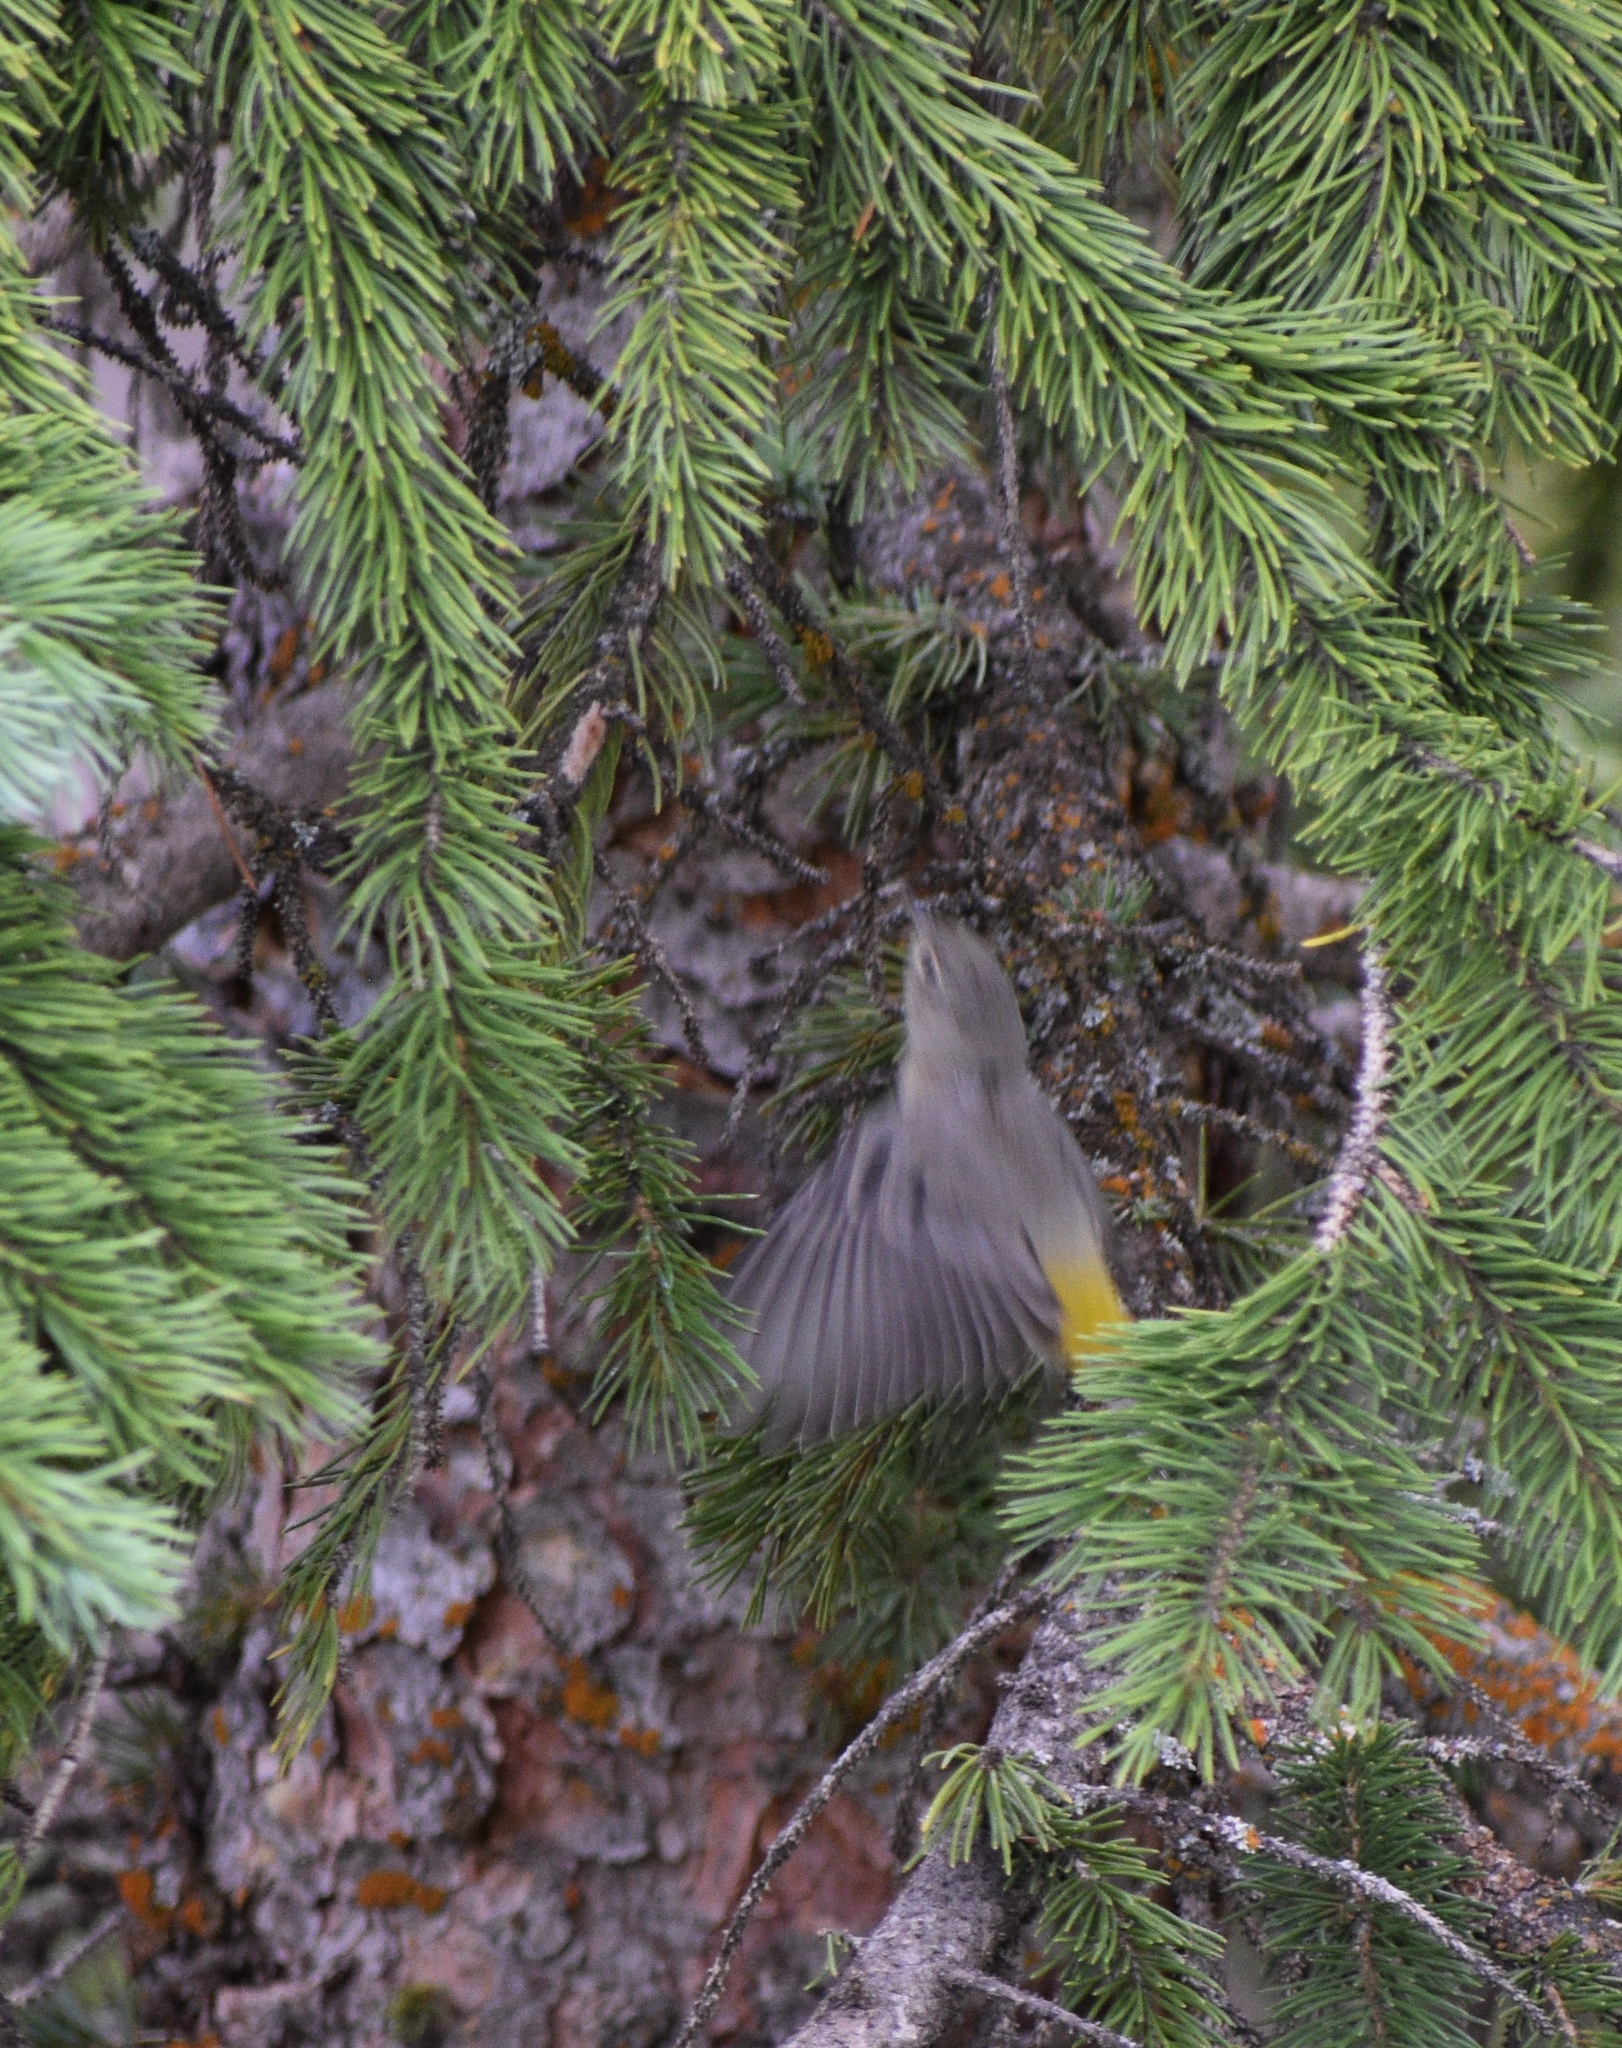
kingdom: Animalia
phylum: Chordata
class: Aves
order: Passeriformes
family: Parulidae
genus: Leiothlypis
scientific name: Leiothlypis virginiae
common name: Virginia's warbler
